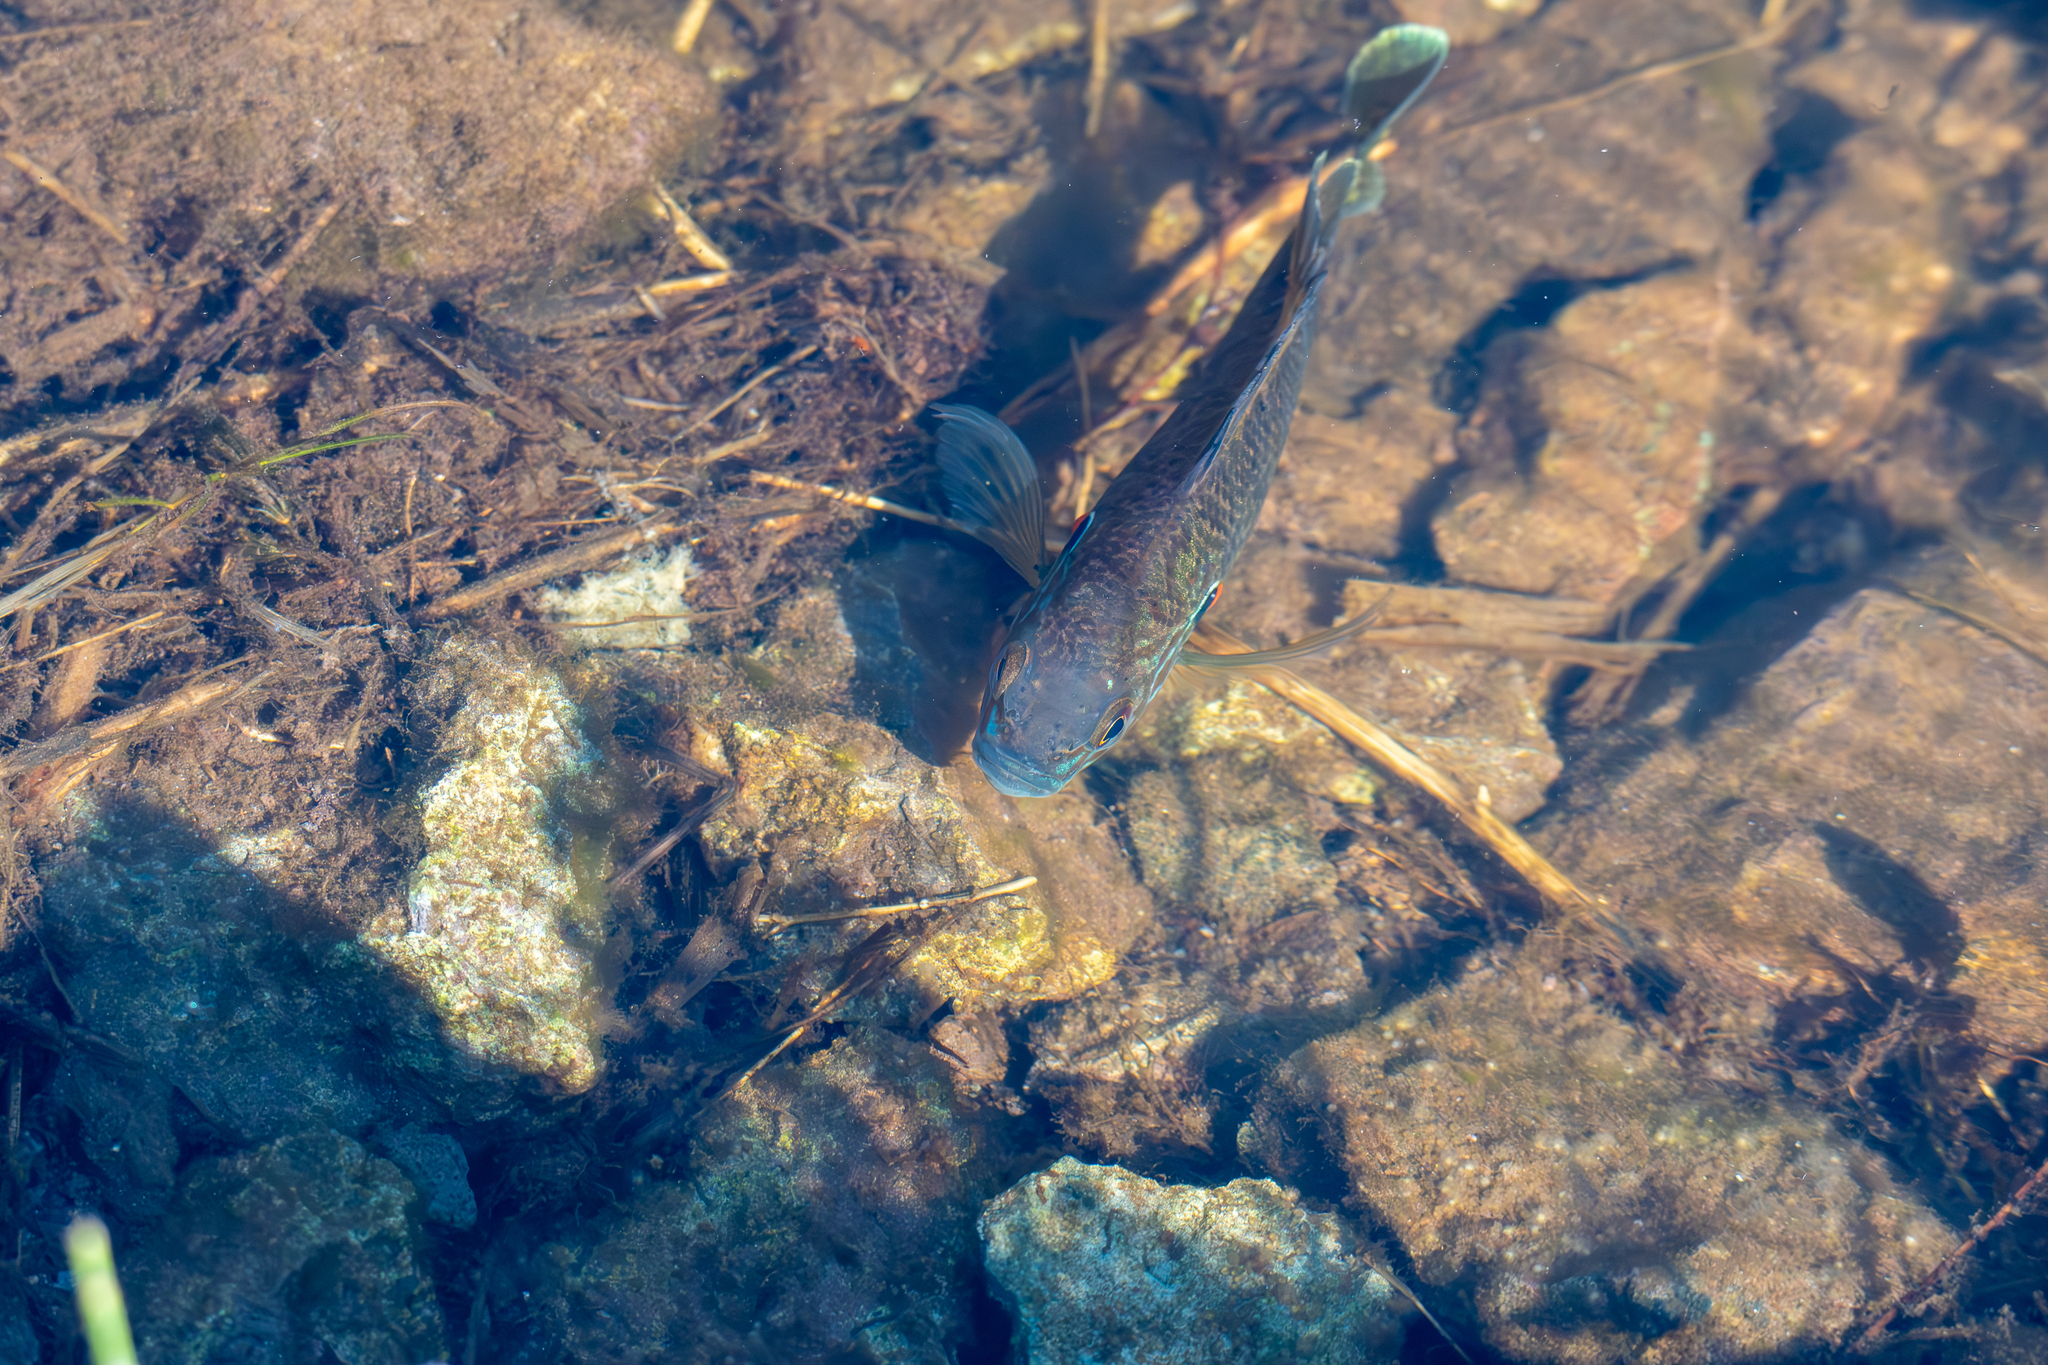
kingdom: Animalia
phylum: Chordata
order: Perciformes
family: Centrarchidae
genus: Lepomis
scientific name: Lepomis gibbosus
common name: Pumpkinseed
